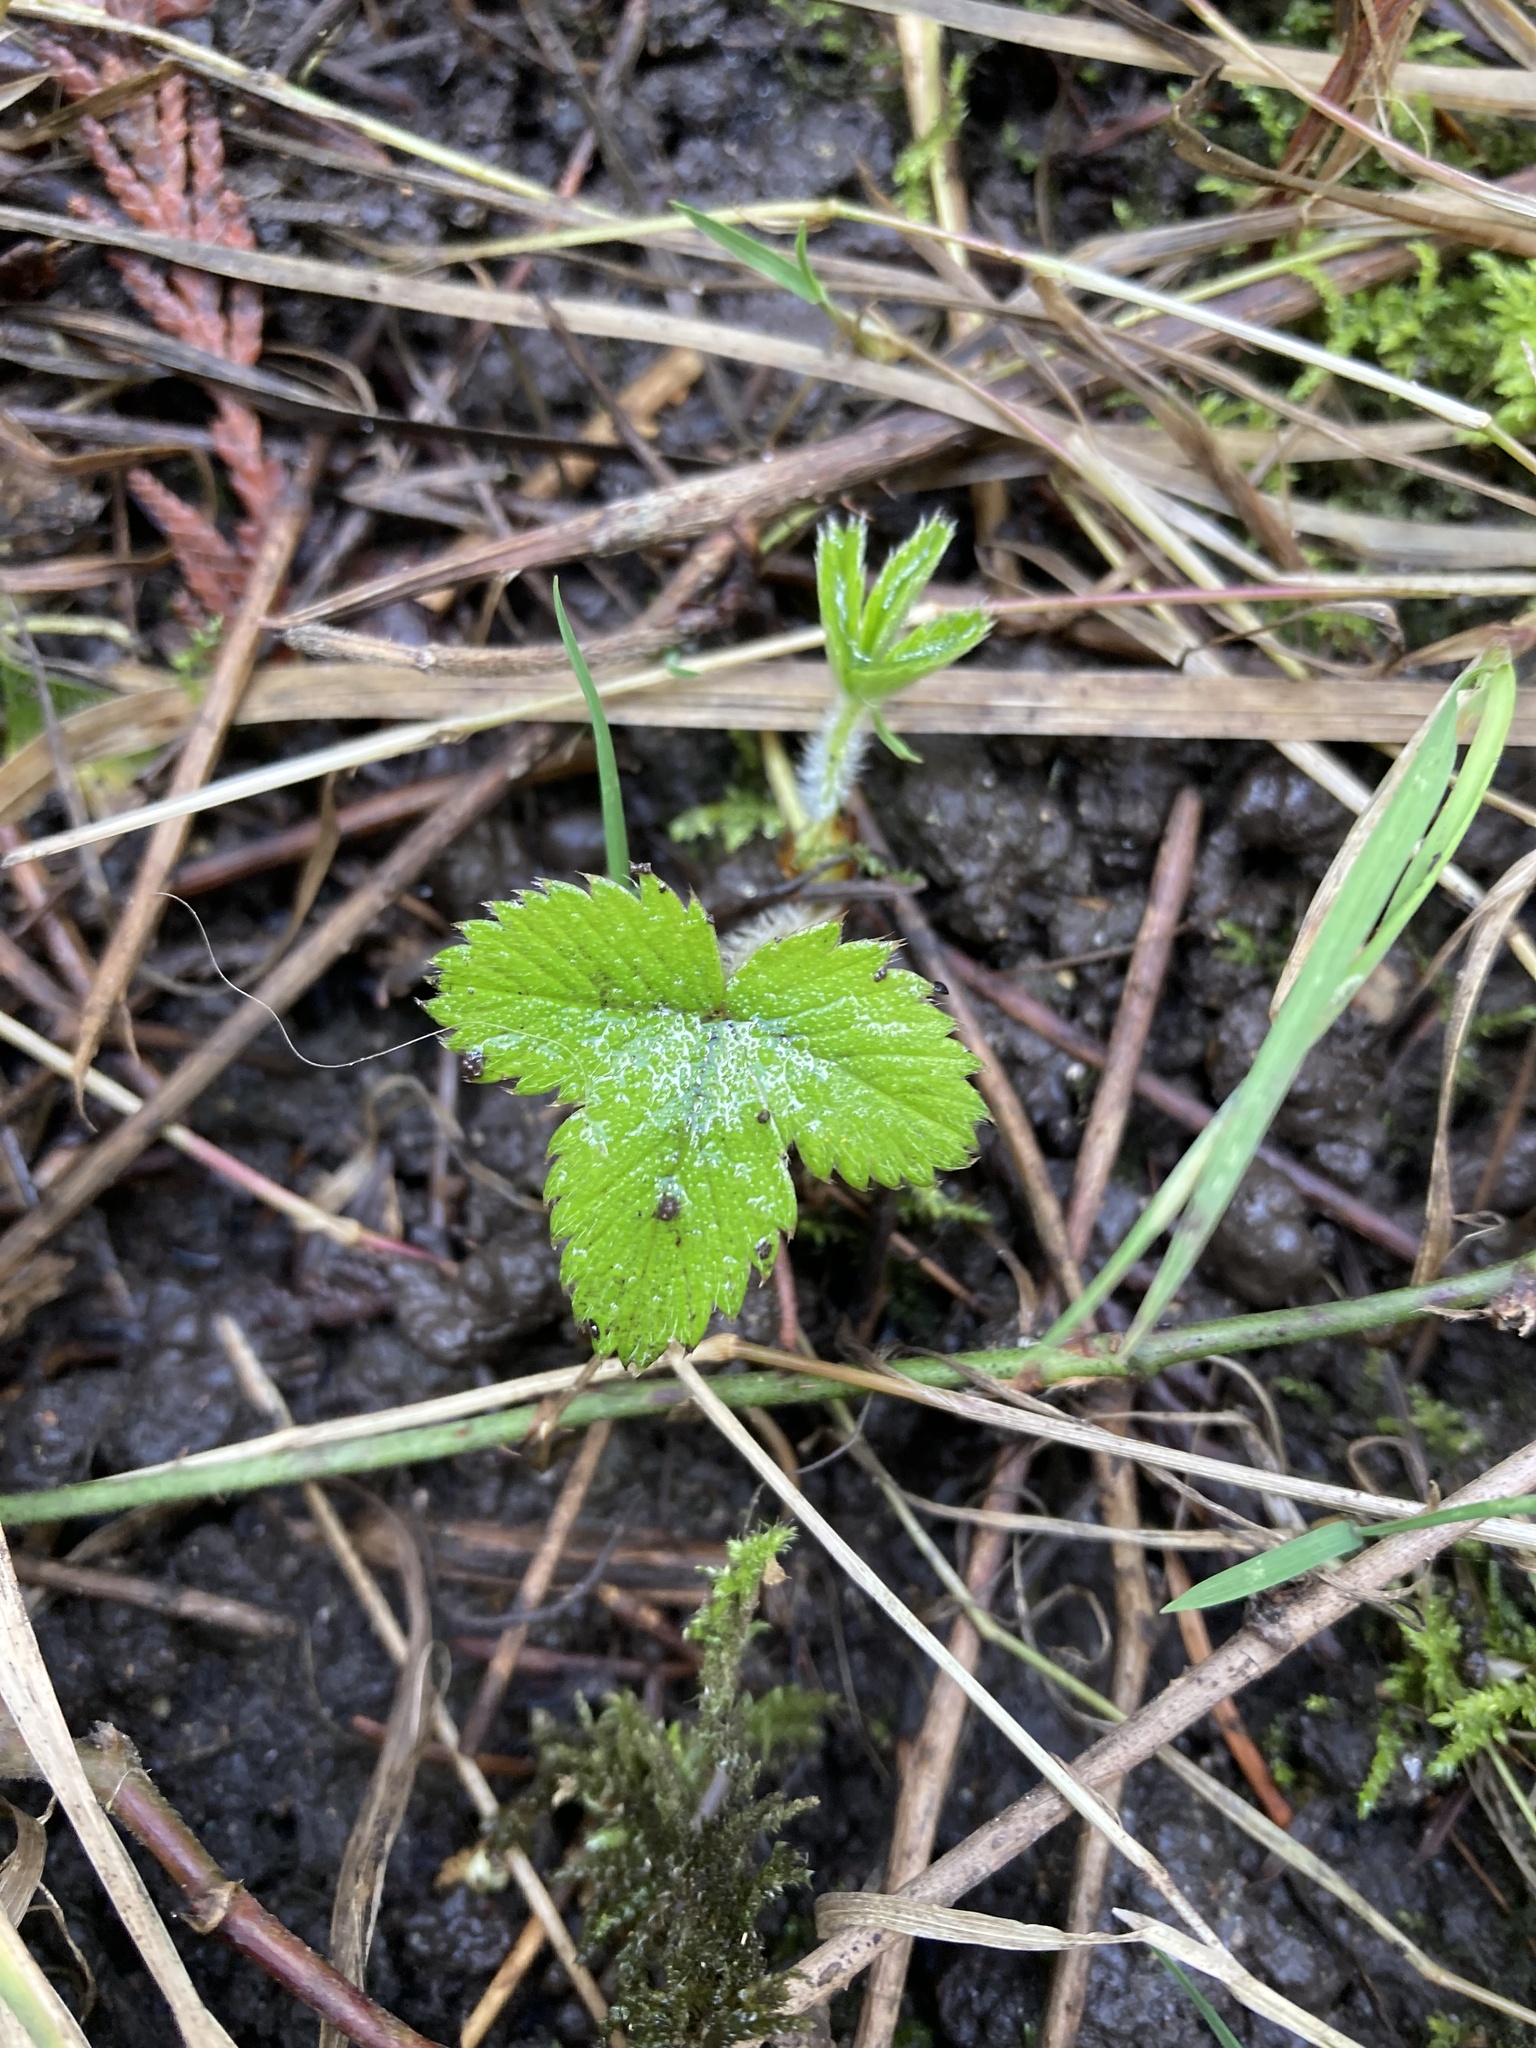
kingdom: Plantae
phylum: Tracheophyta
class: Magnoliopsida
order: Rosales
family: Rosaceae
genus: Fragaria
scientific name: Fragaria vesca
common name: Wild strawberry
